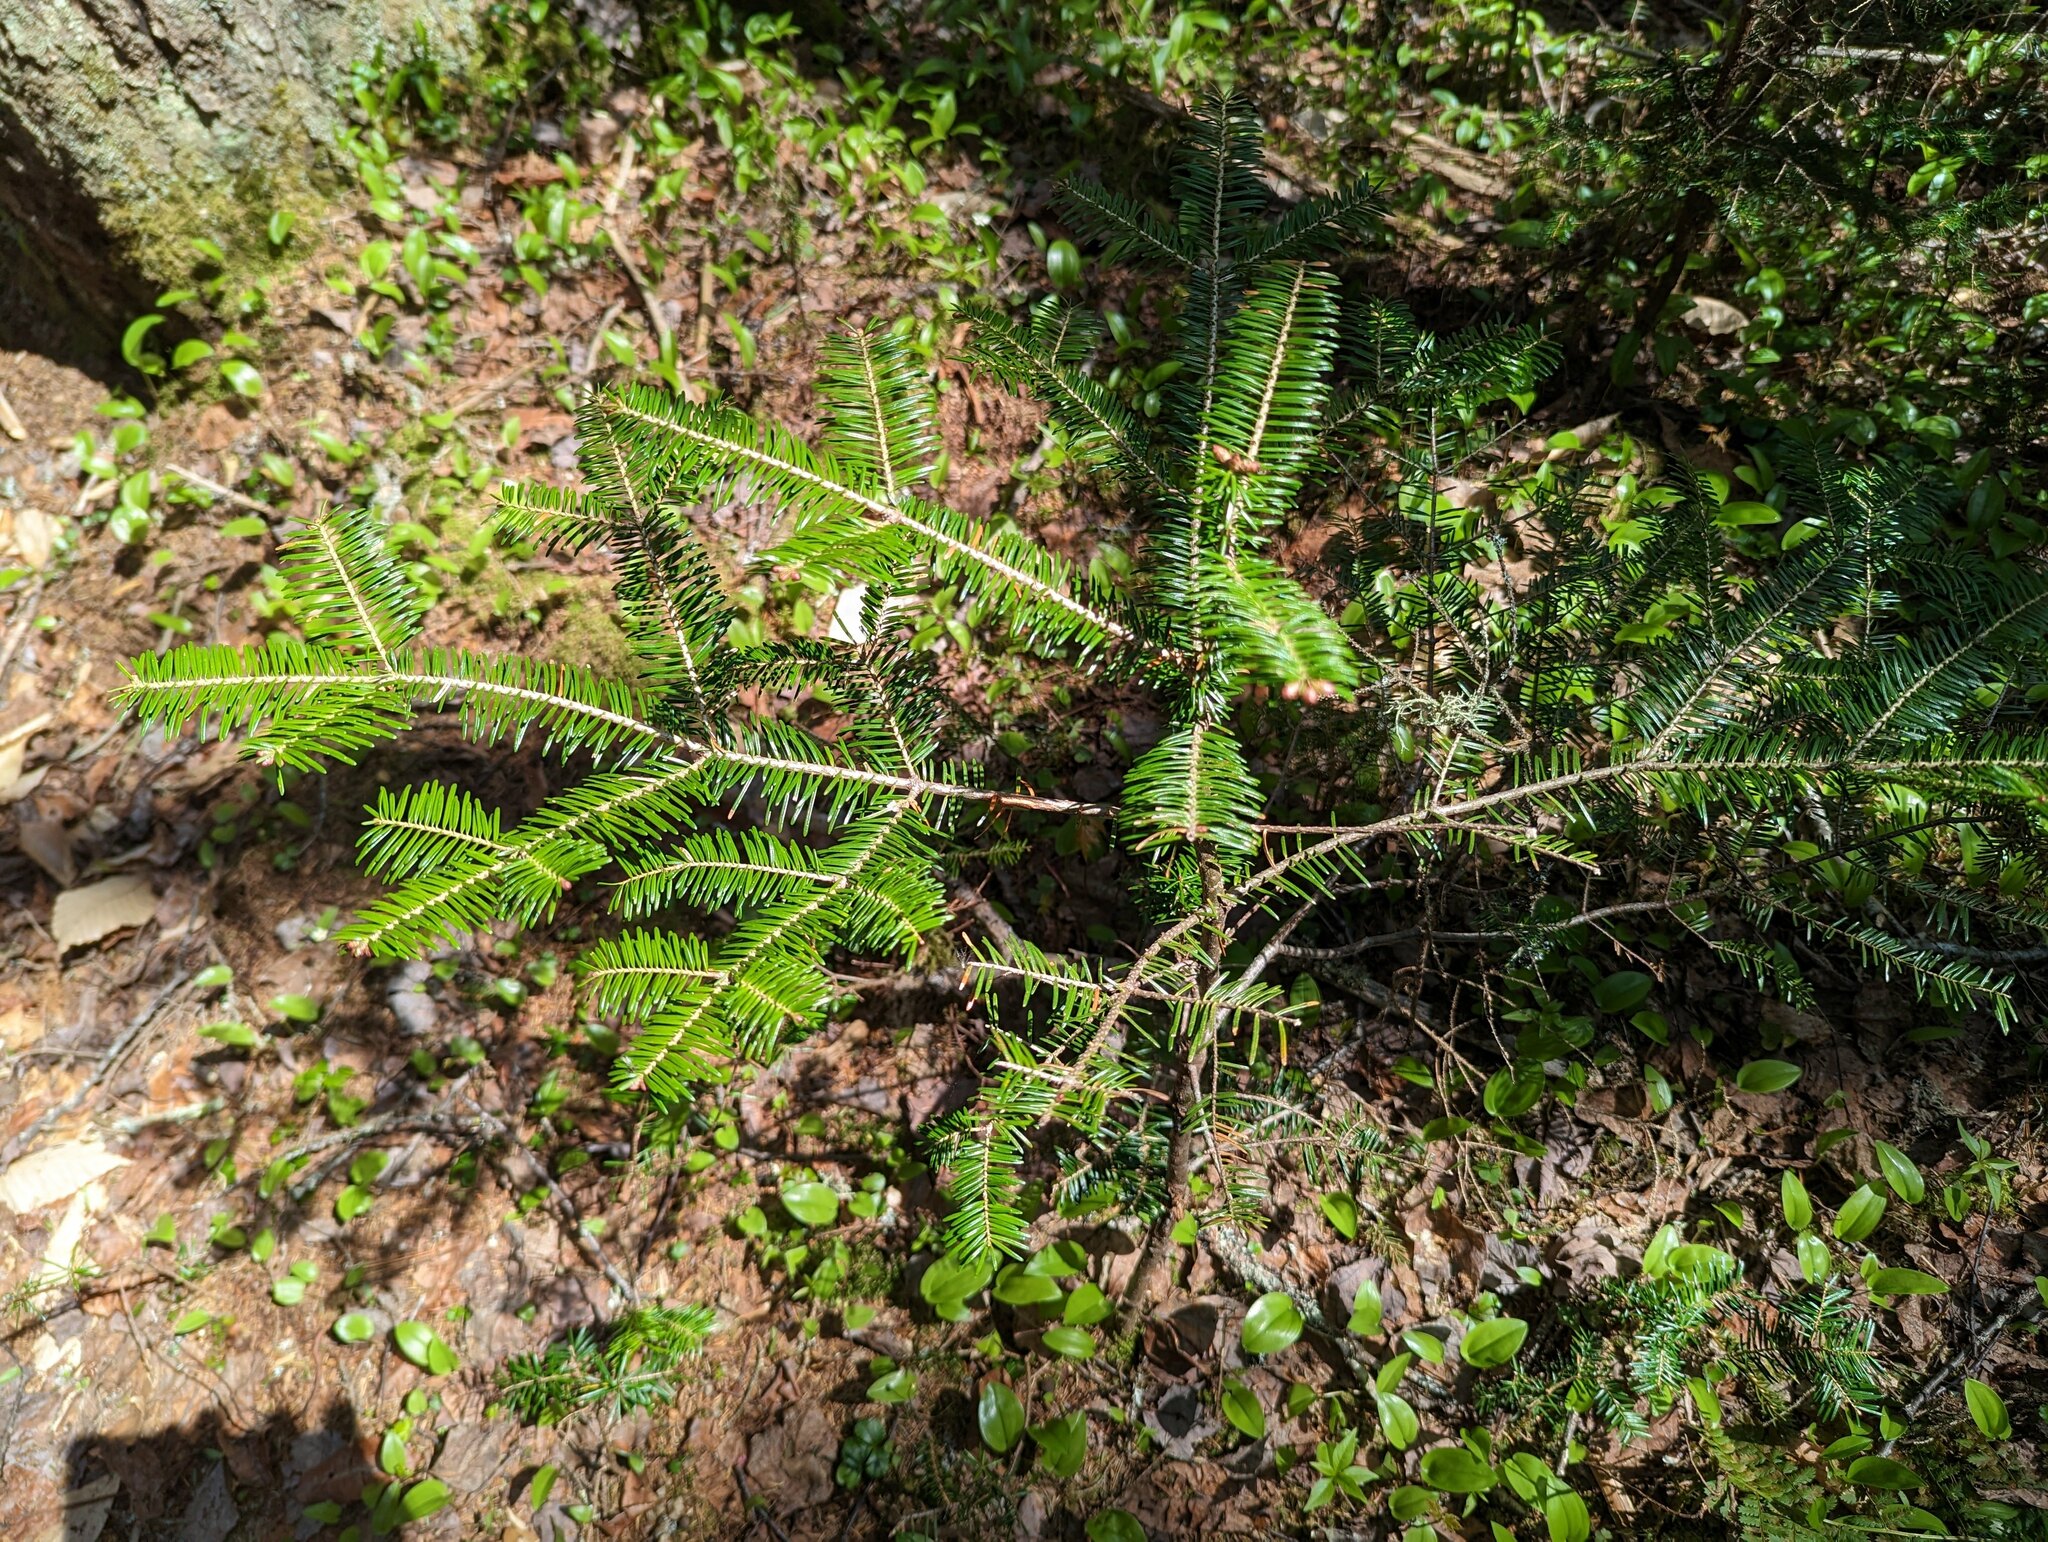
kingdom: Plantae
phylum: Tracheophyta
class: Pinopsida
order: Pinales
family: Pinaceae
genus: Abies
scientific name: Abies balsamea
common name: Balsam fir
